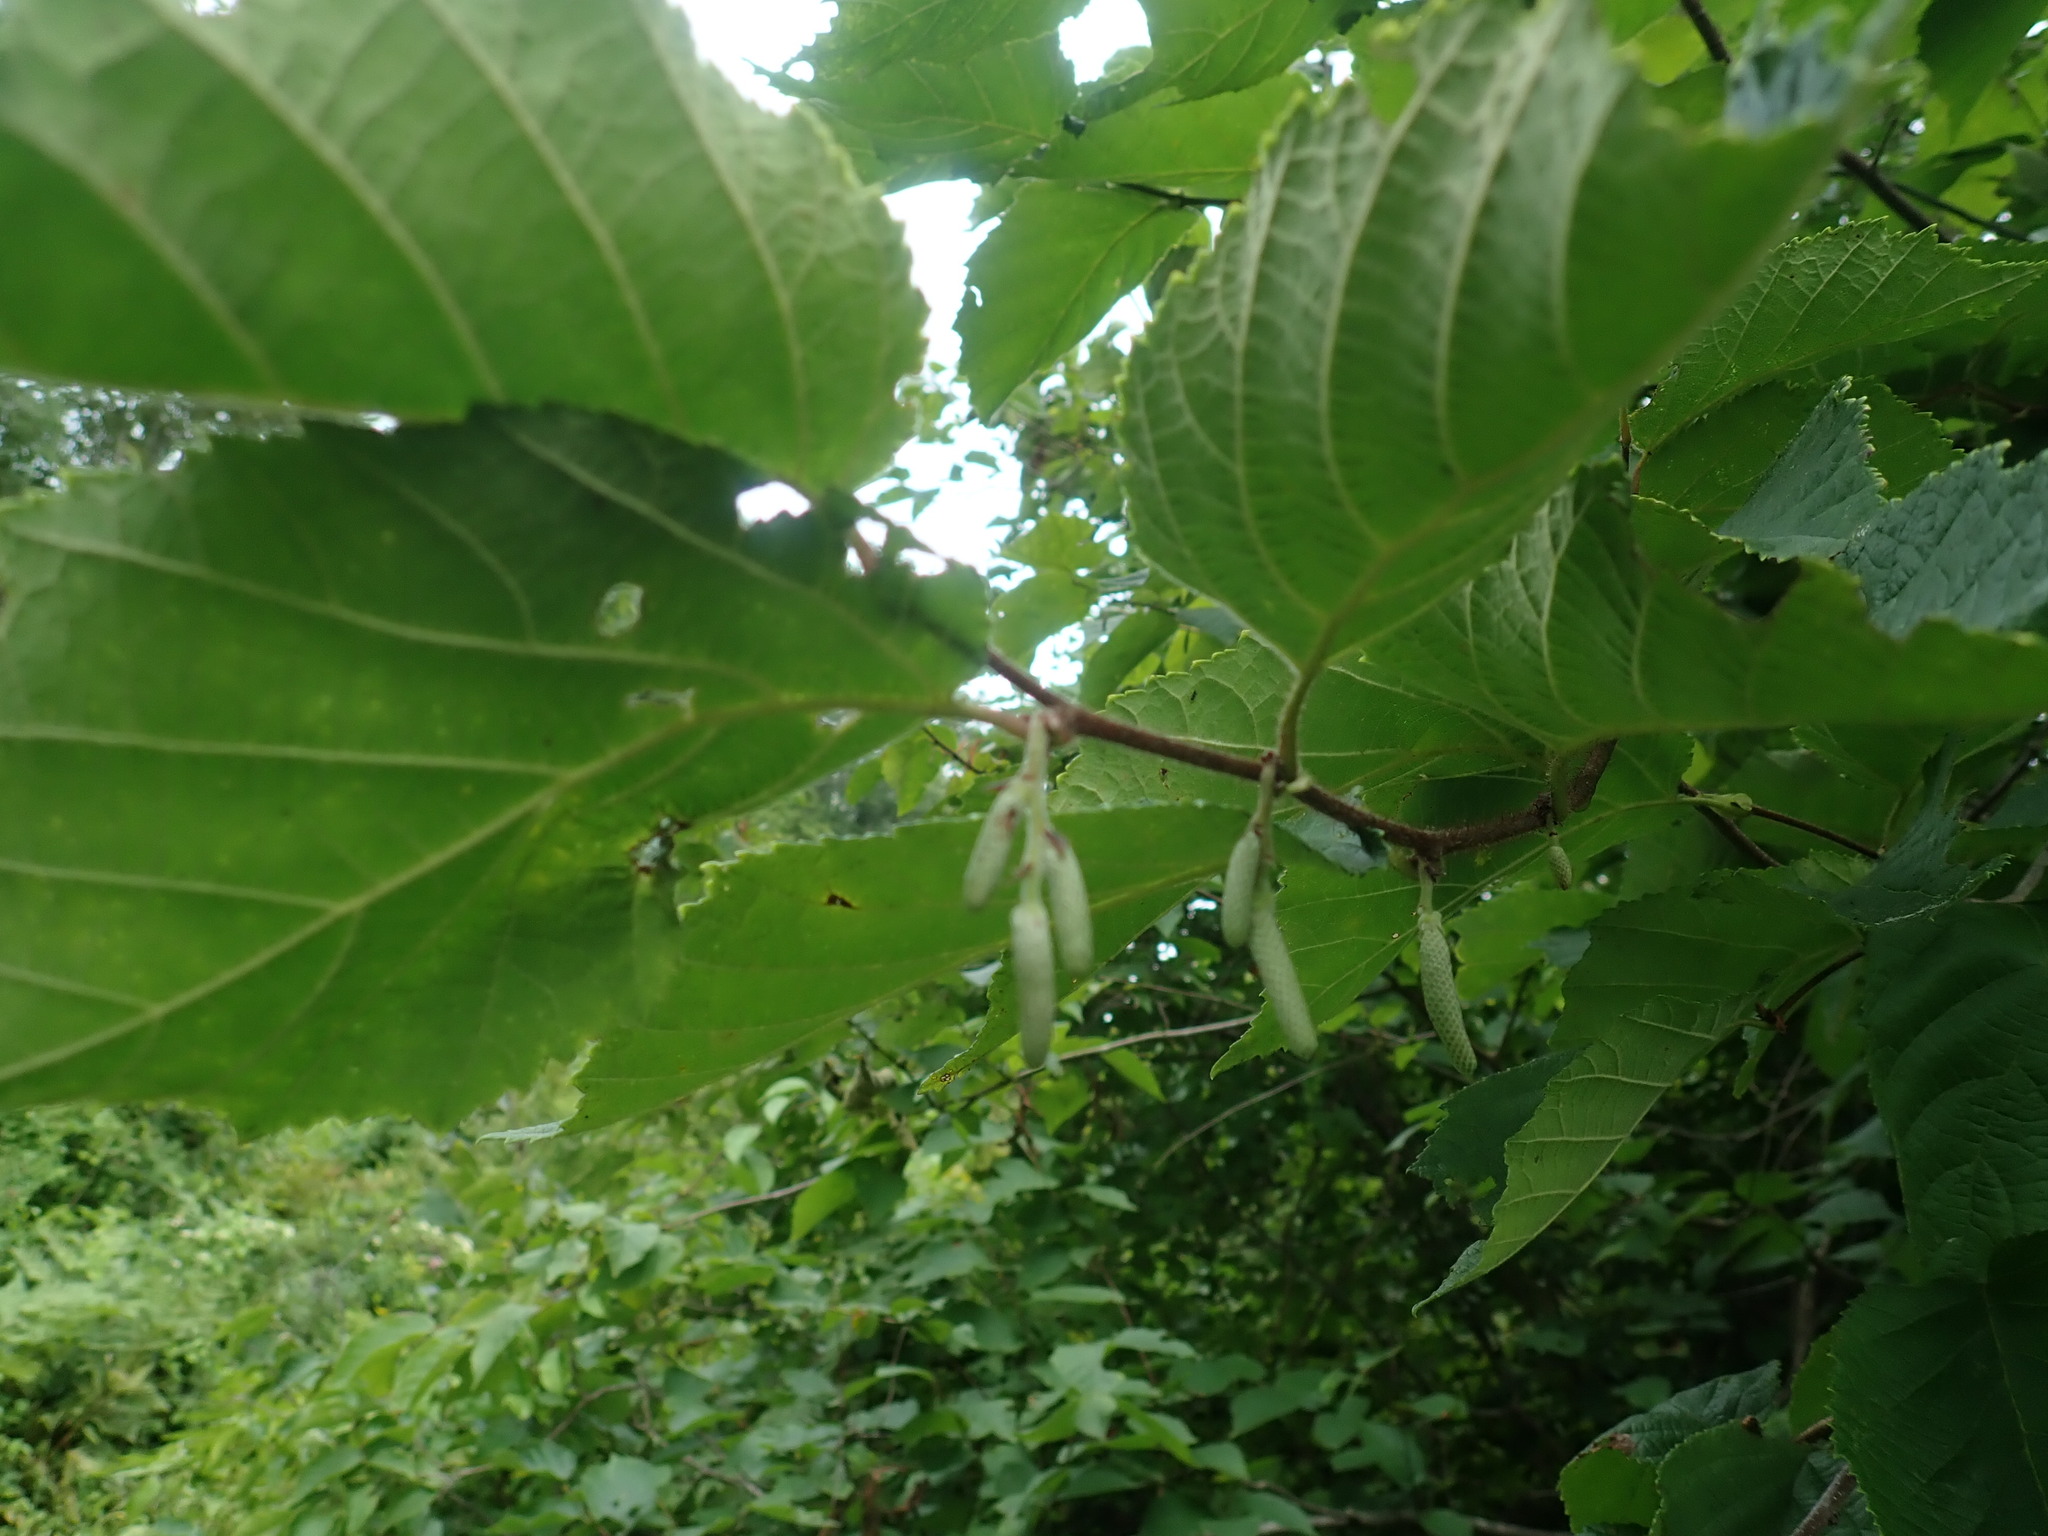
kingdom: Plantae
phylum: Tracheophyta
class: Magnoliopsida
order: Fagales
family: Betulaceae
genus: Corylus
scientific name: Corylus americana
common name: American hazel
